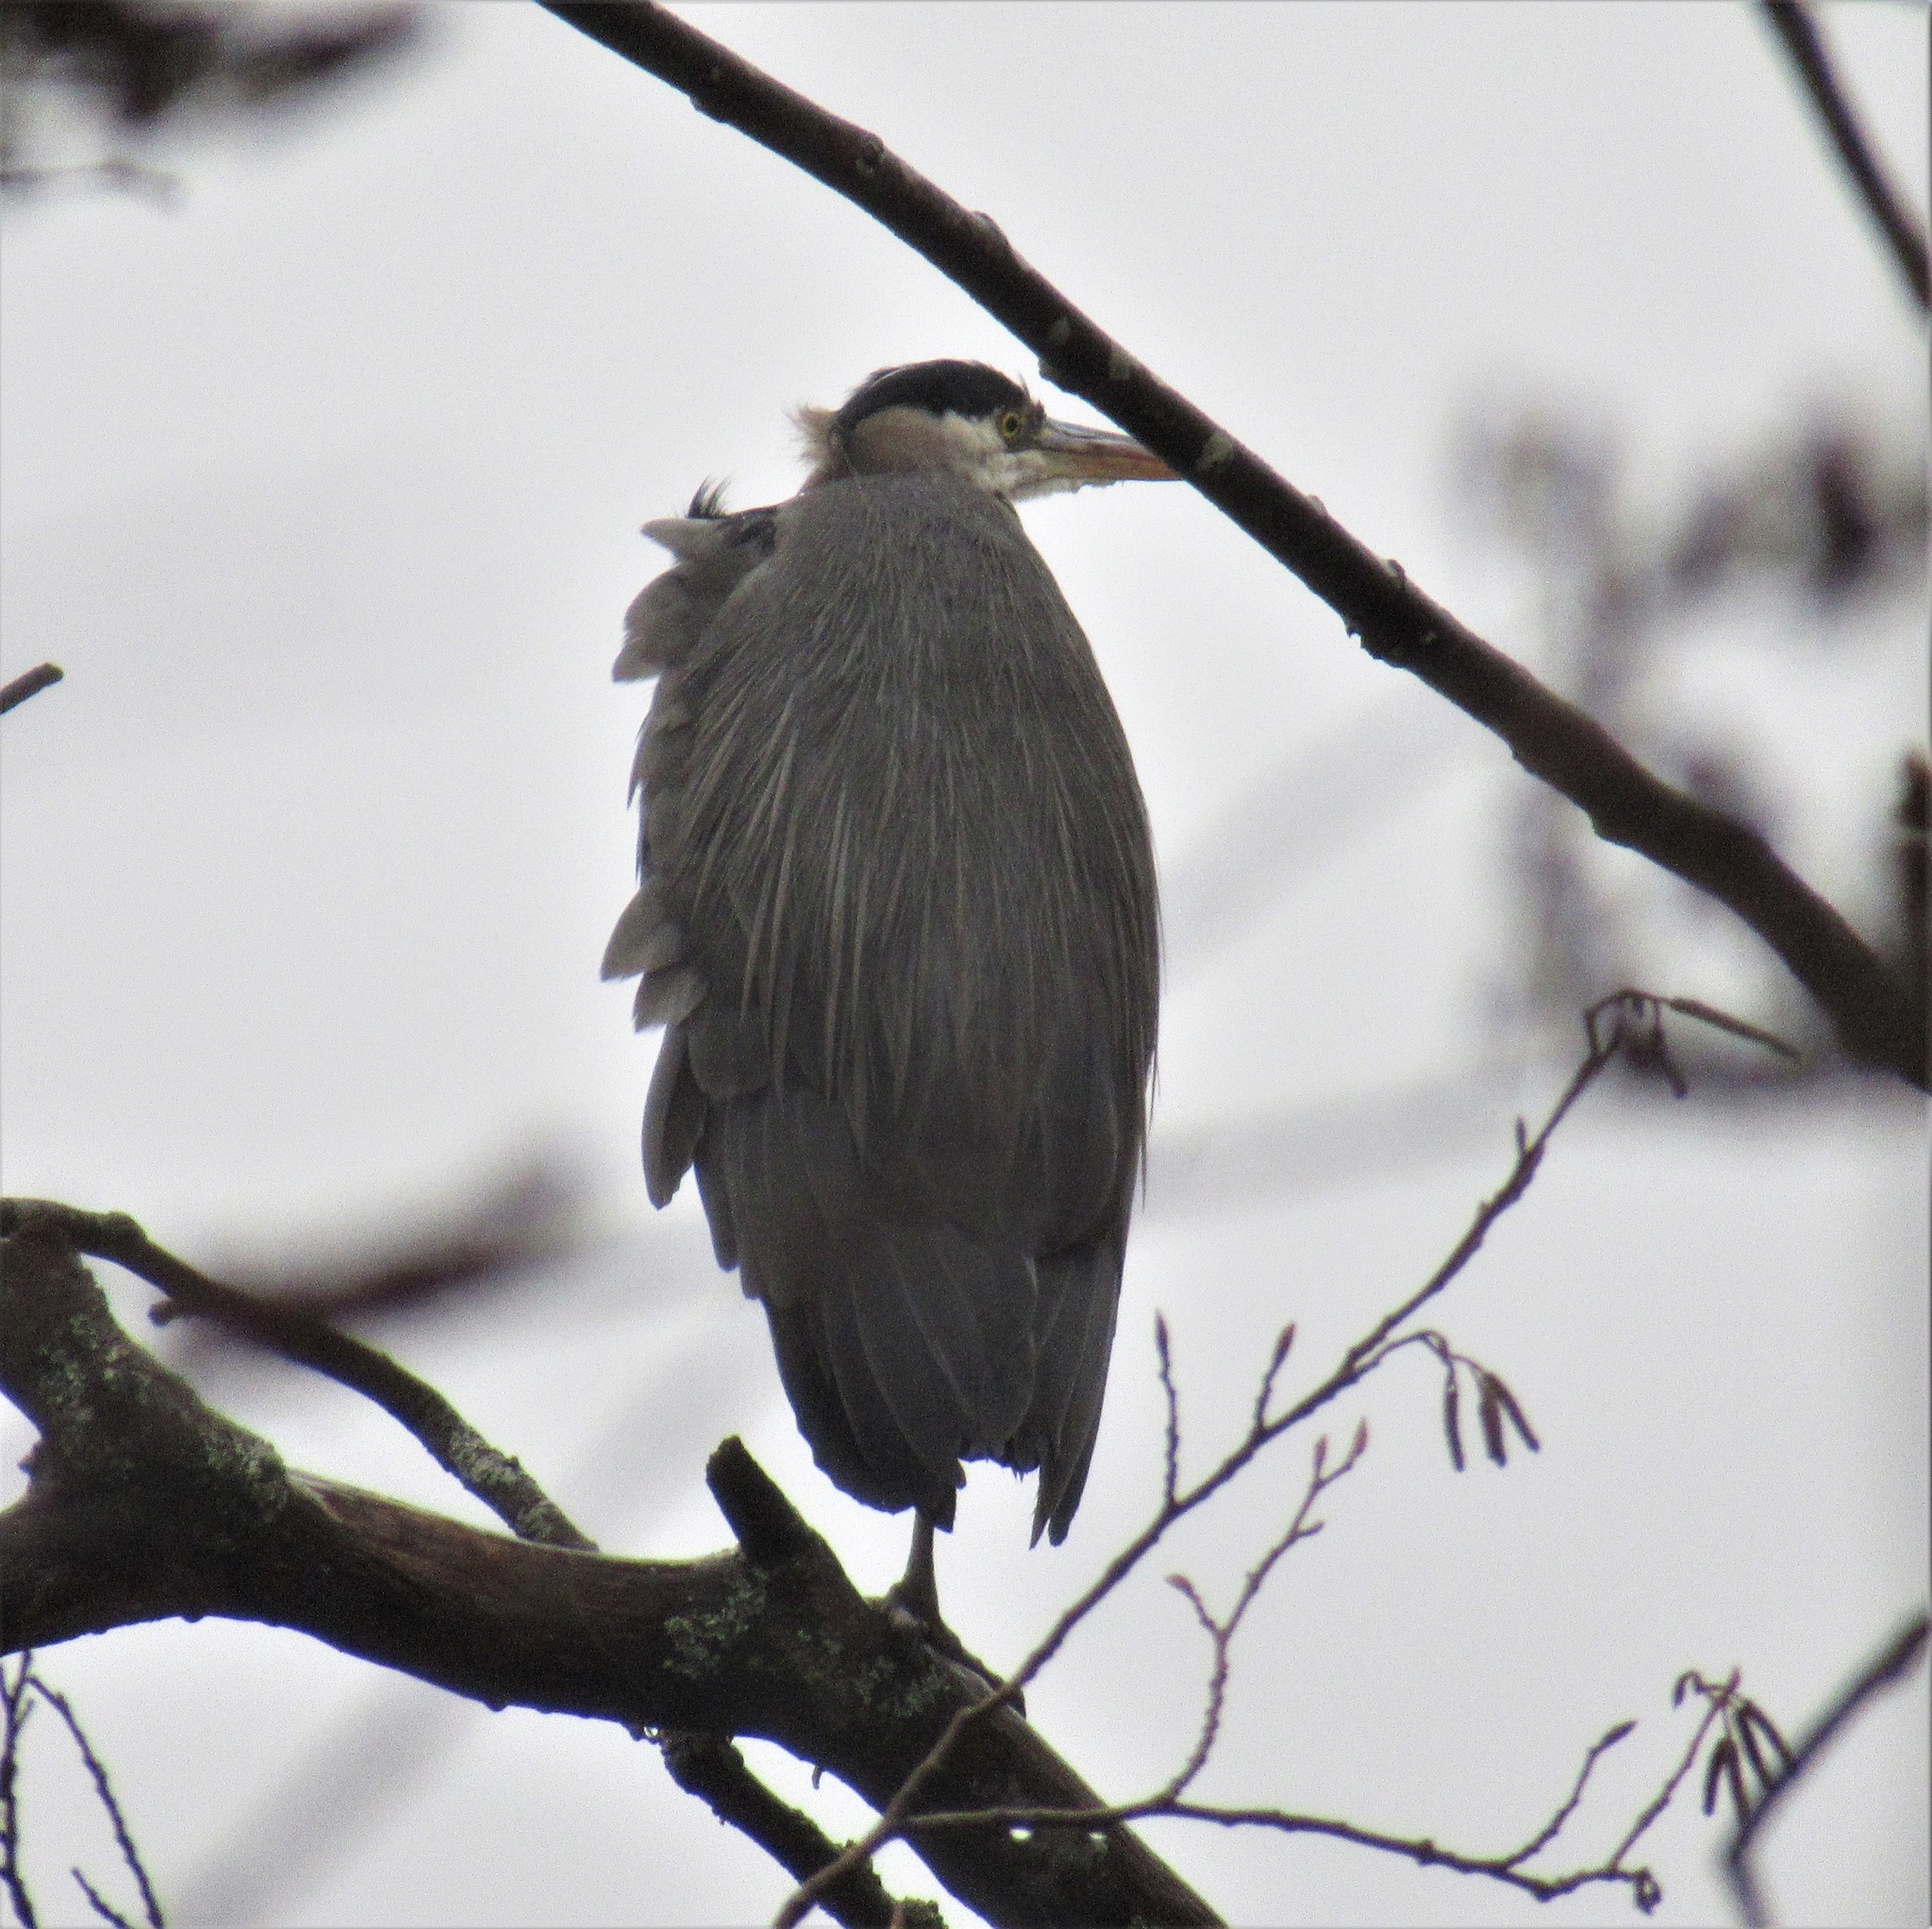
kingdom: Animalia
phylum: Chordata
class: Aves
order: Pelecaniformes
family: Ardeidae
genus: Ardea
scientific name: Ardea herodias
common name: Great blue heron
